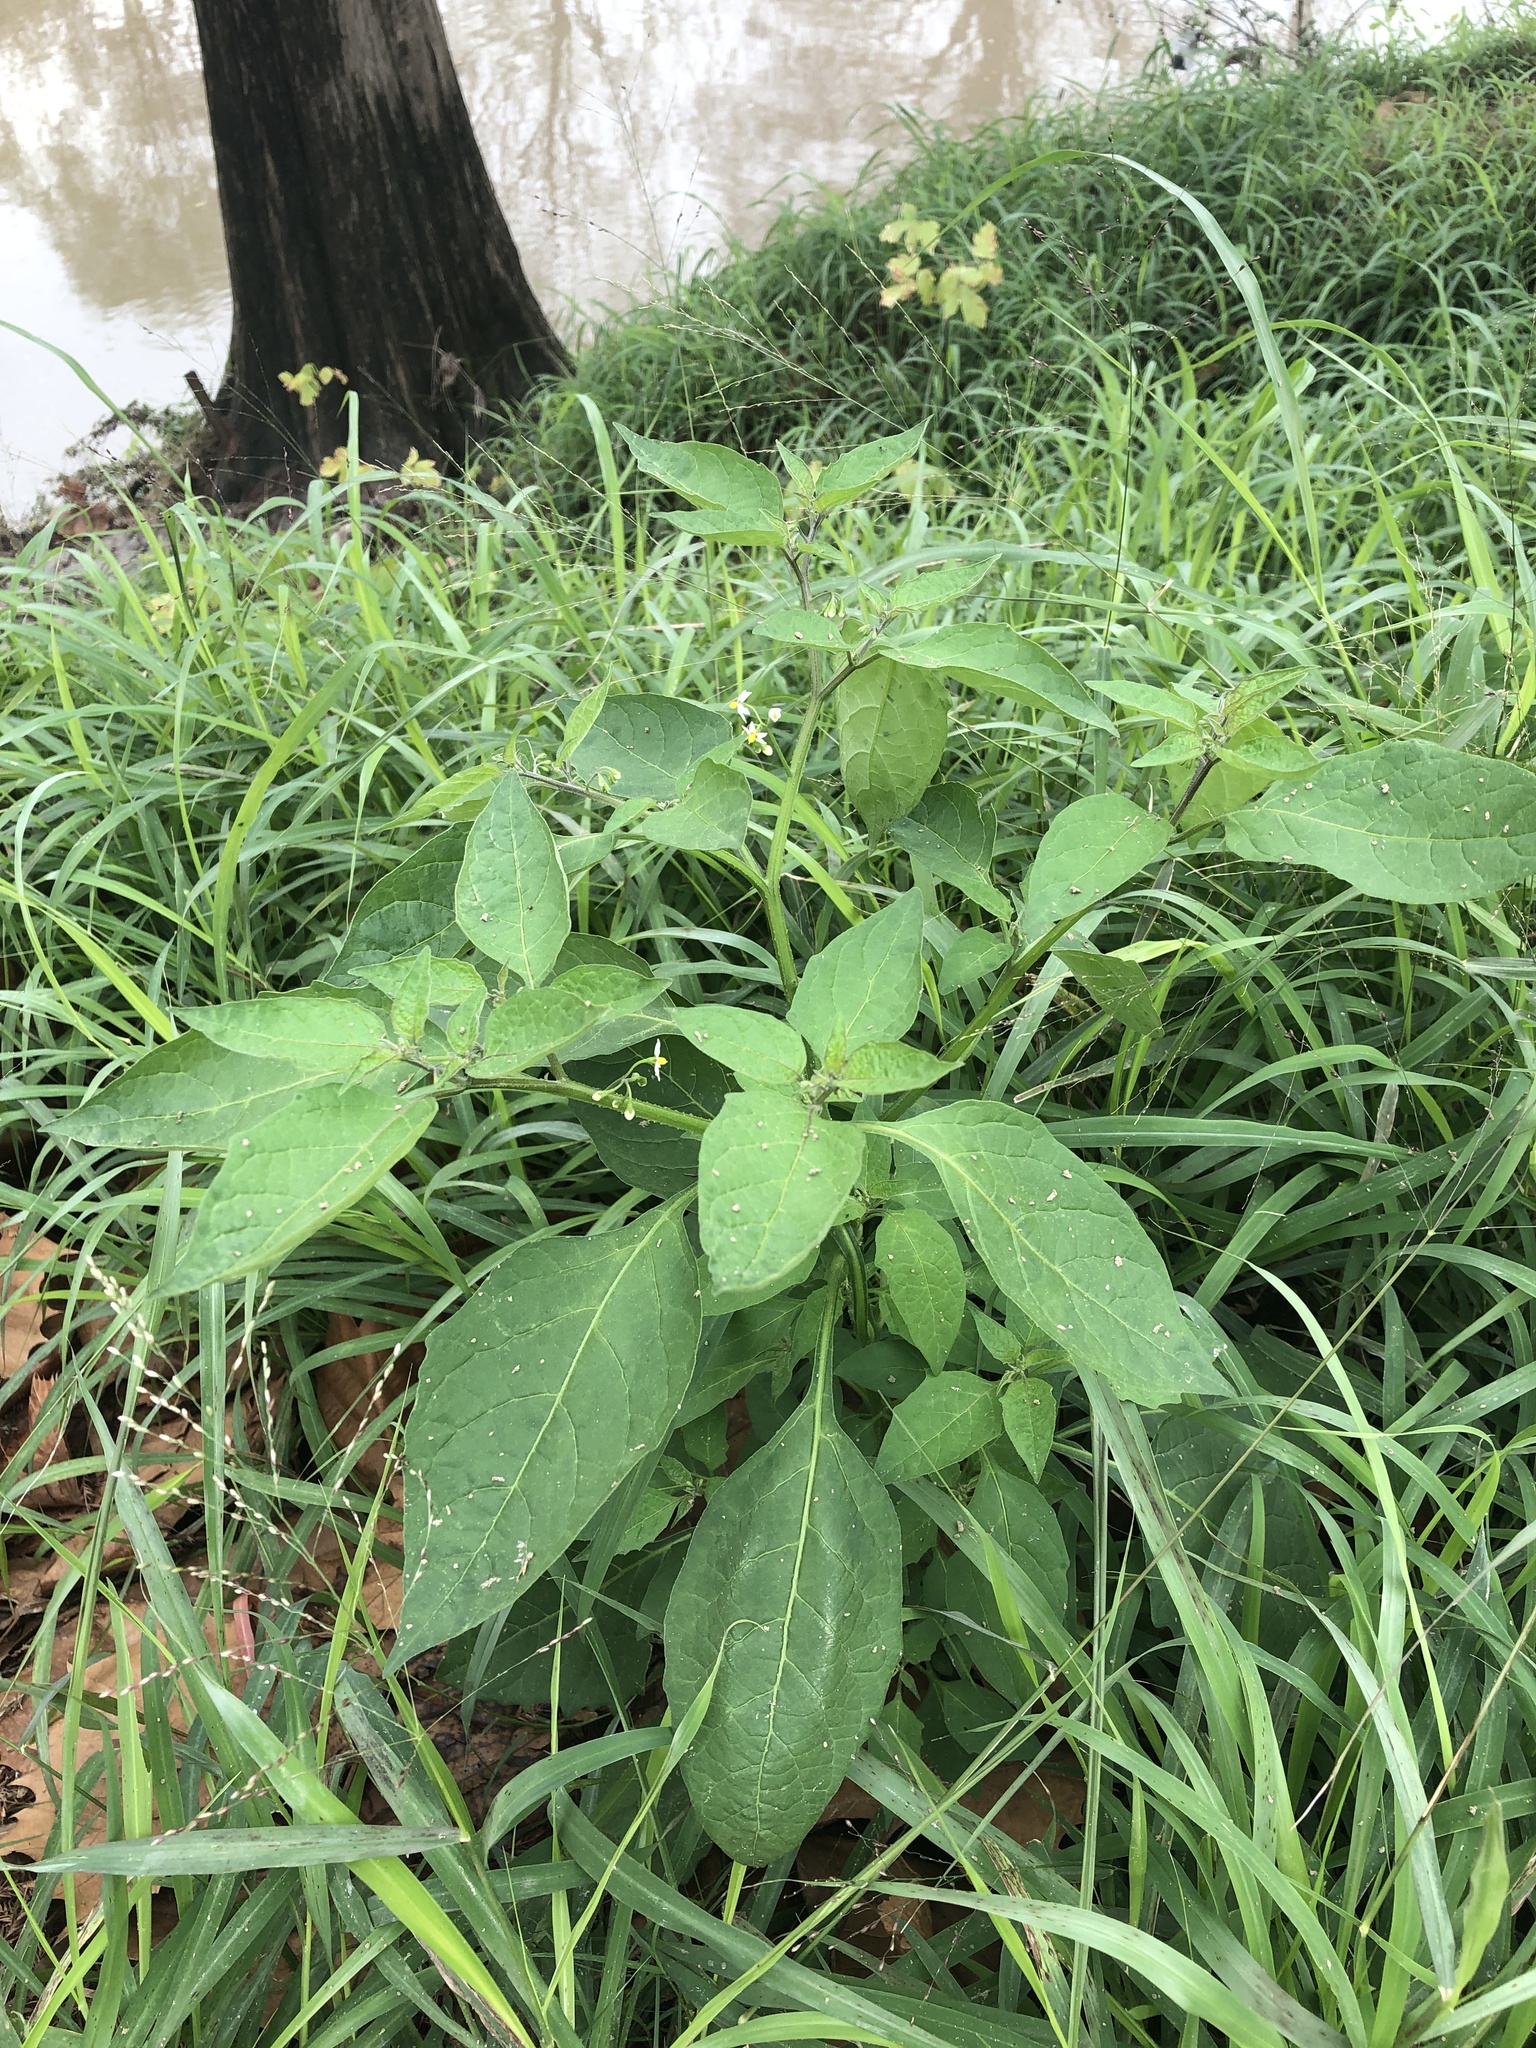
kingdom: Plantae
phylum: Tracheophyta
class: Magnoliopsida
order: Solanales
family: Solanaceae
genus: Solanum
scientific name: Solanum emulans
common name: Eastern black nightshade
